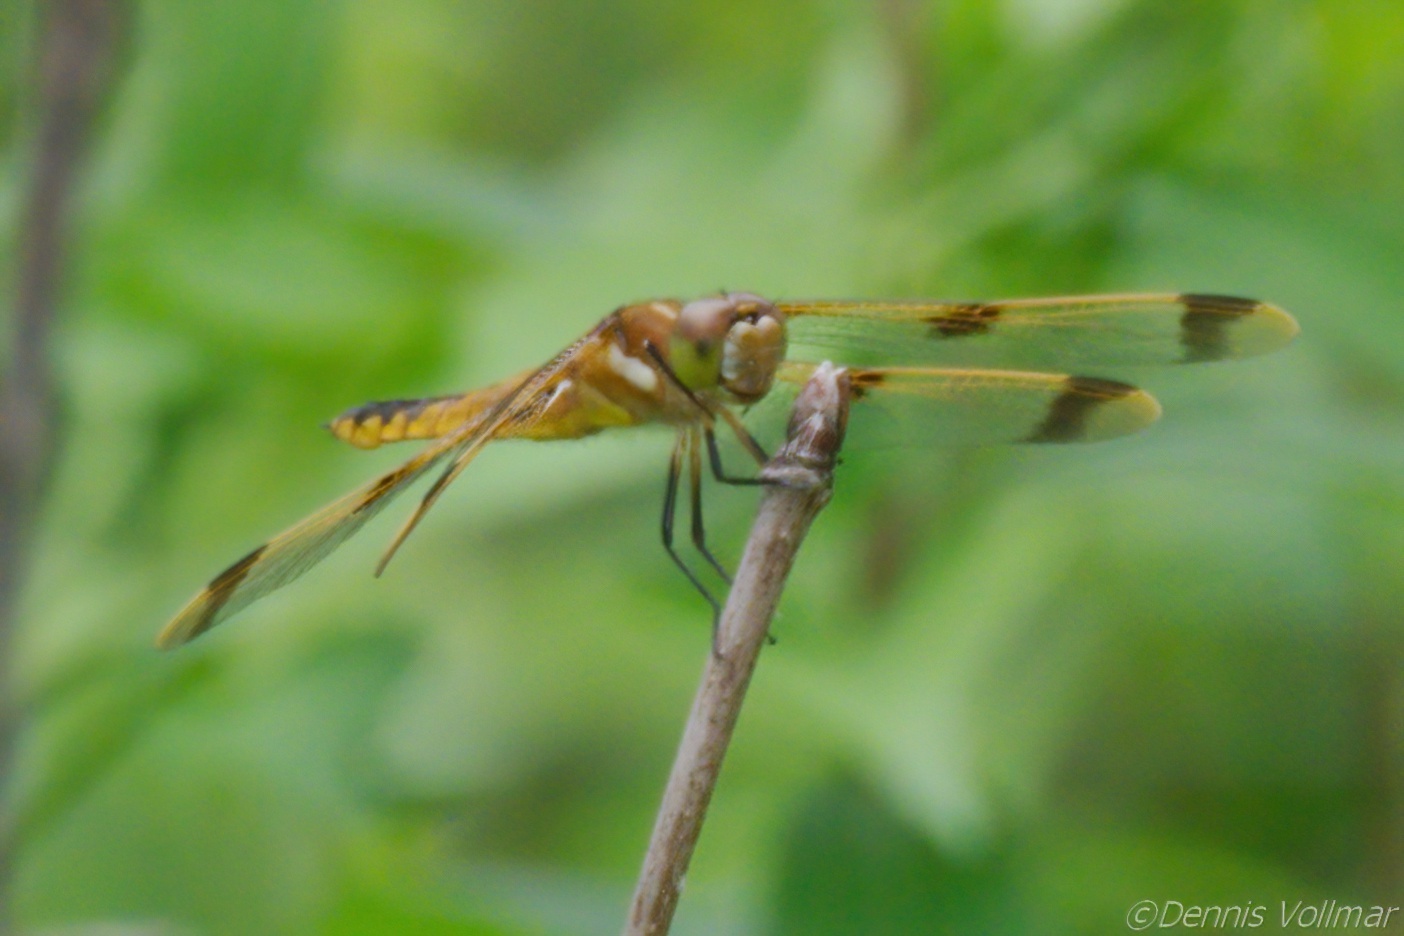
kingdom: Animalia
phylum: Arthropoda
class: Insecta
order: Odonata
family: Libellulidae
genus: Libellula
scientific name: Libellula semifasciata
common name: Painted skimmer
